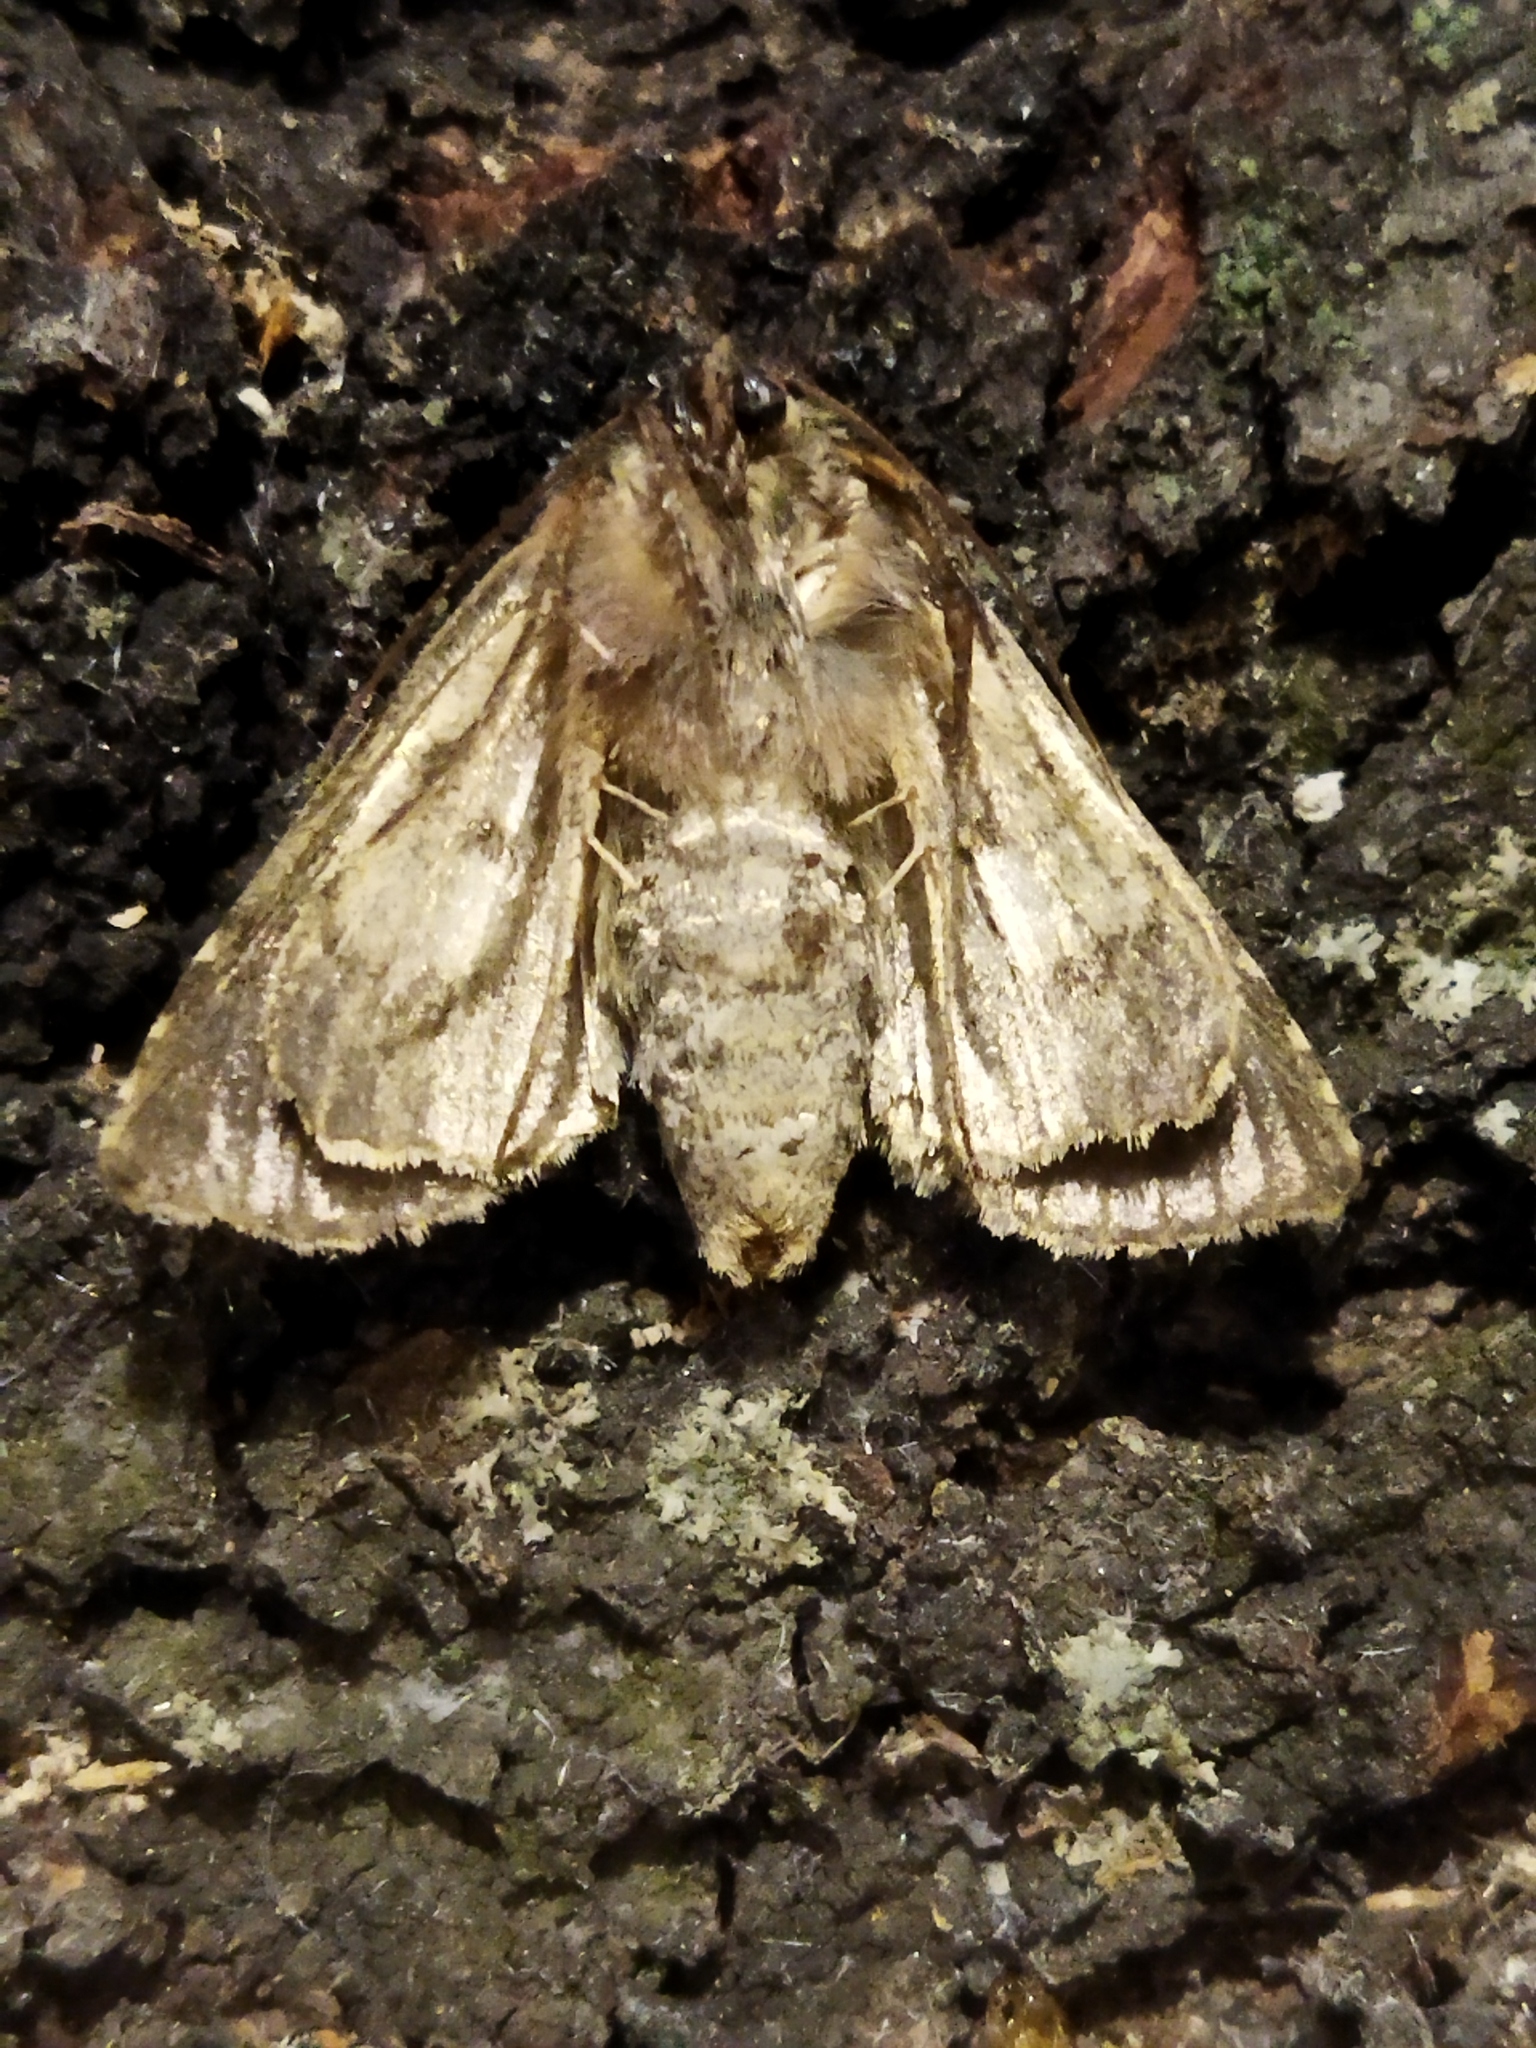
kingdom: Animalia
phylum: Arthropoda
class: Insecta
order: Lepidoptera
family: Noctuidae
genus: Abrostola
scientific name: Abrostola tripartita
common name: Spectacle
